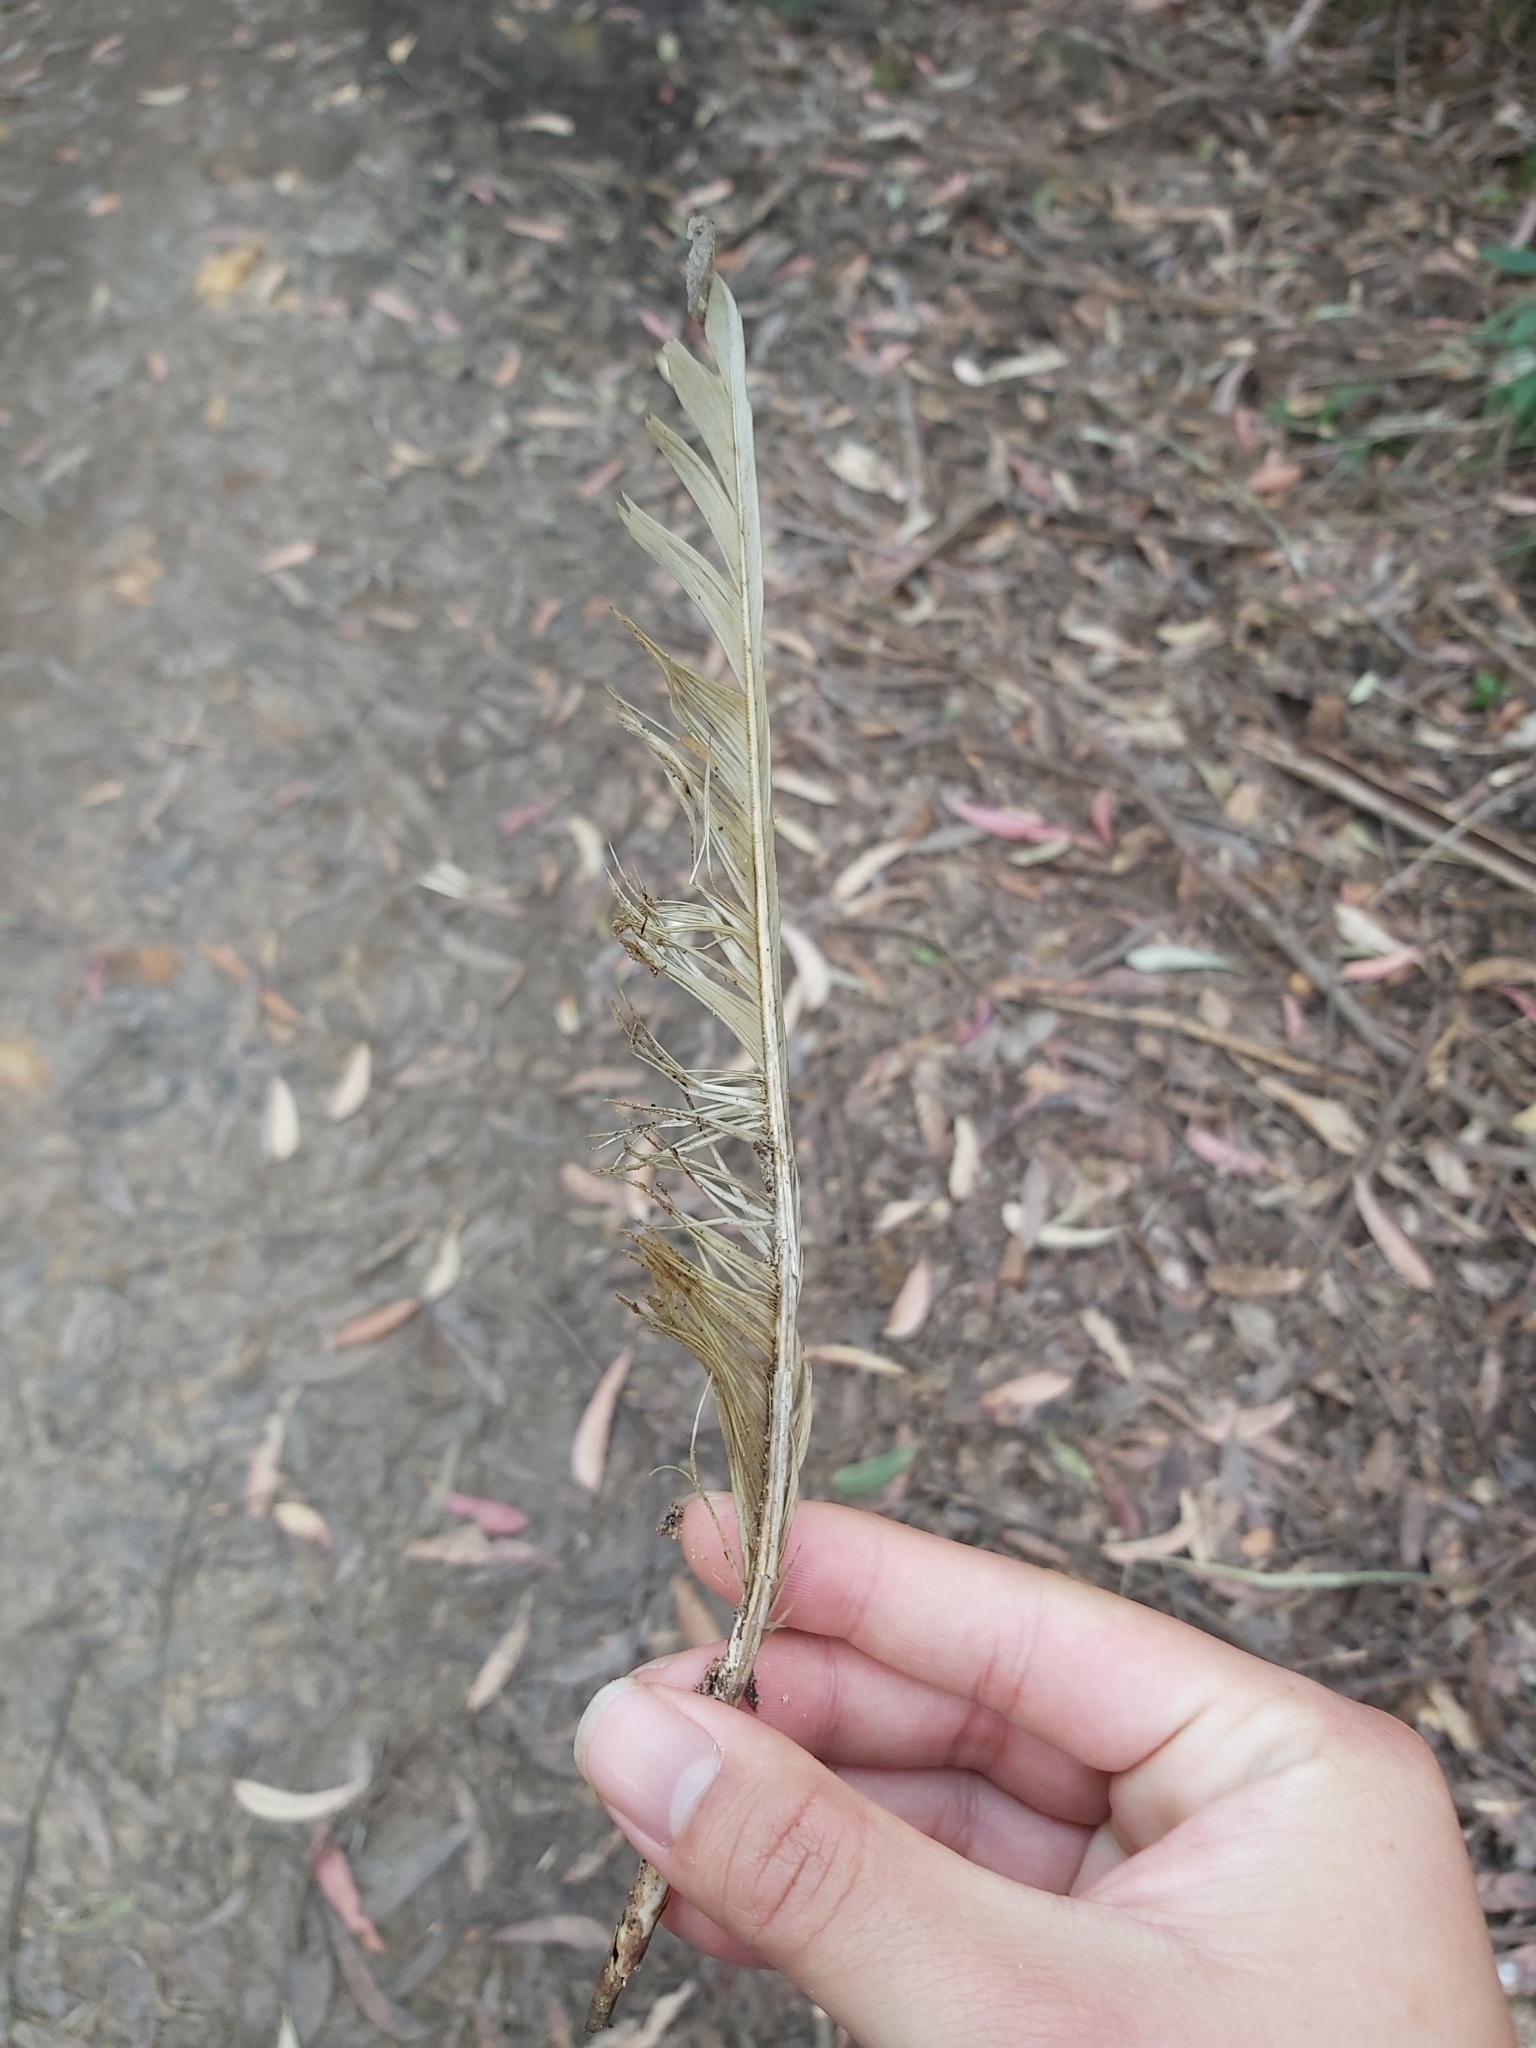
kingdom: Animalia
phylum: Chordata
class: Aves
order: Psittaciformes
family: Psittacidae
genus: Cacatua
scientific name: Cacatua galerita
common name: Sulphur-crested cockatoo
